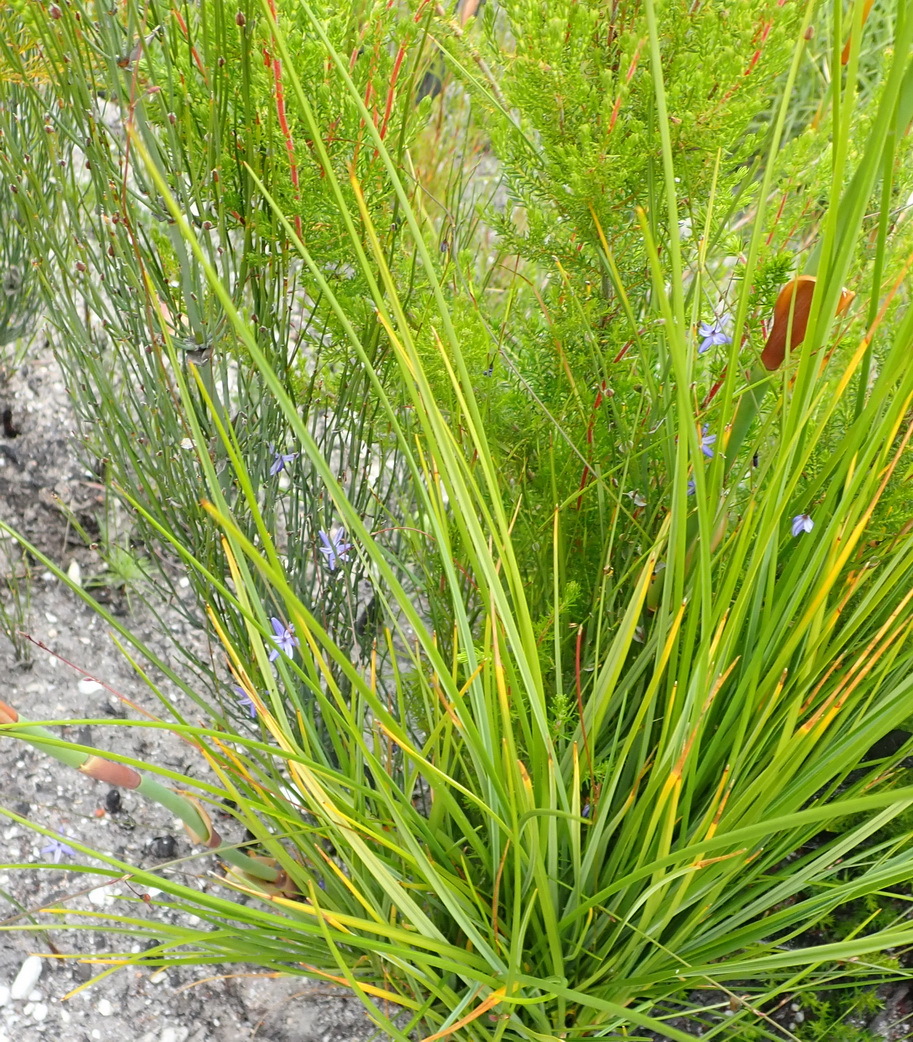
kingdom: Plantae
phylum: Tracheophyta
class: Liliopsida
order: Asparagales
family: Asphodelaceae
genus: Caesia
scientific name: Caesia contorta
